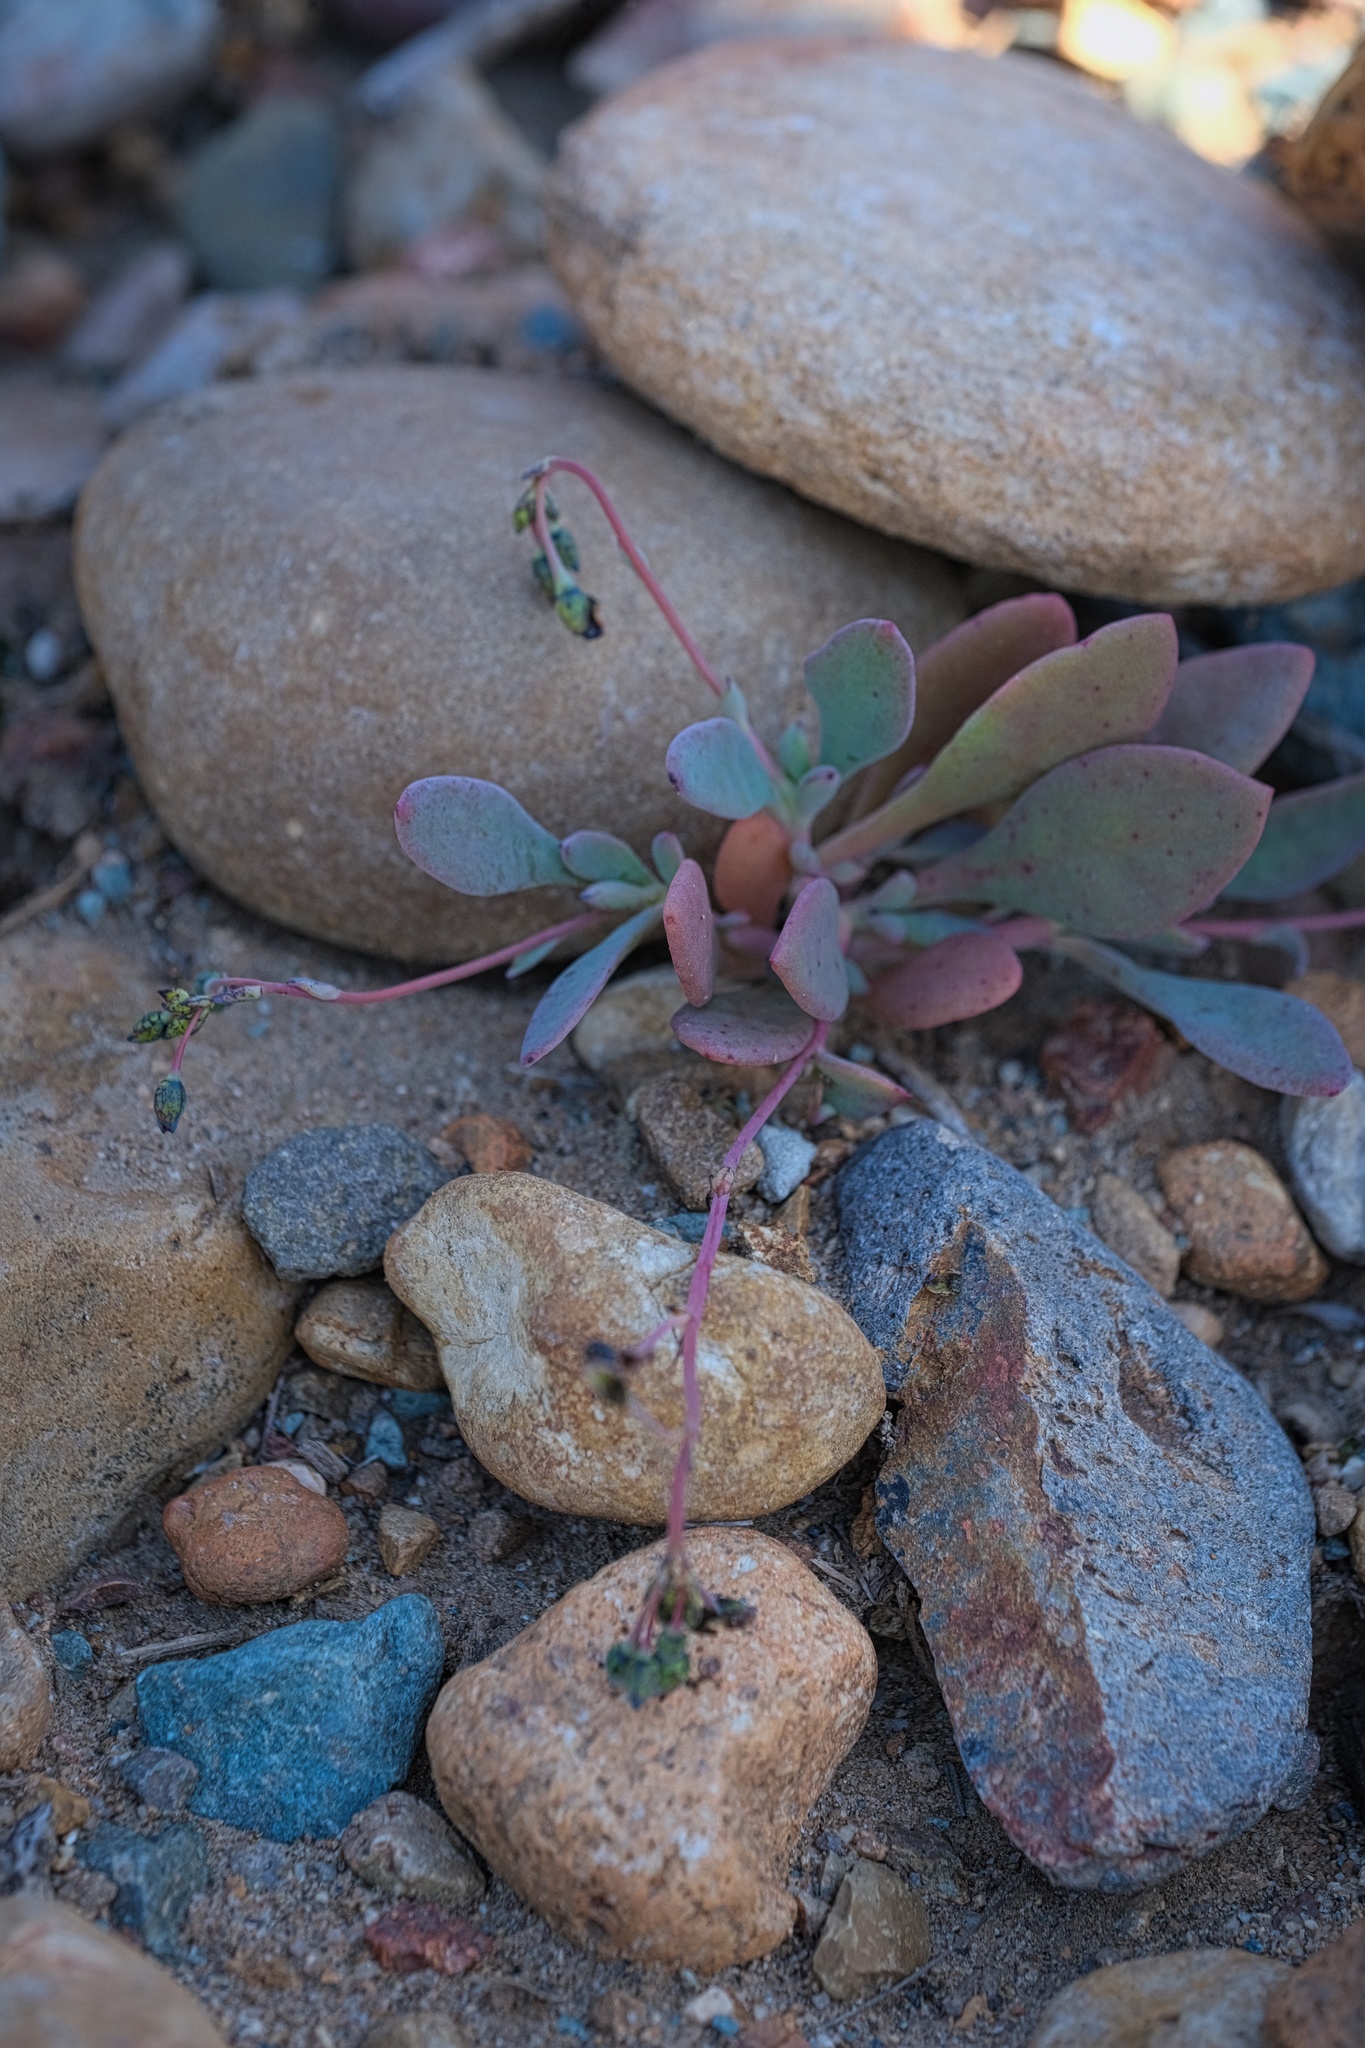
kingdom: Plantae
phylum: Tracheophyta
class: Magnoliopsida
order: Caryophyllales
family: Montiaceae
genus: Cistanthe
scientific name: Cistanthe maritima
